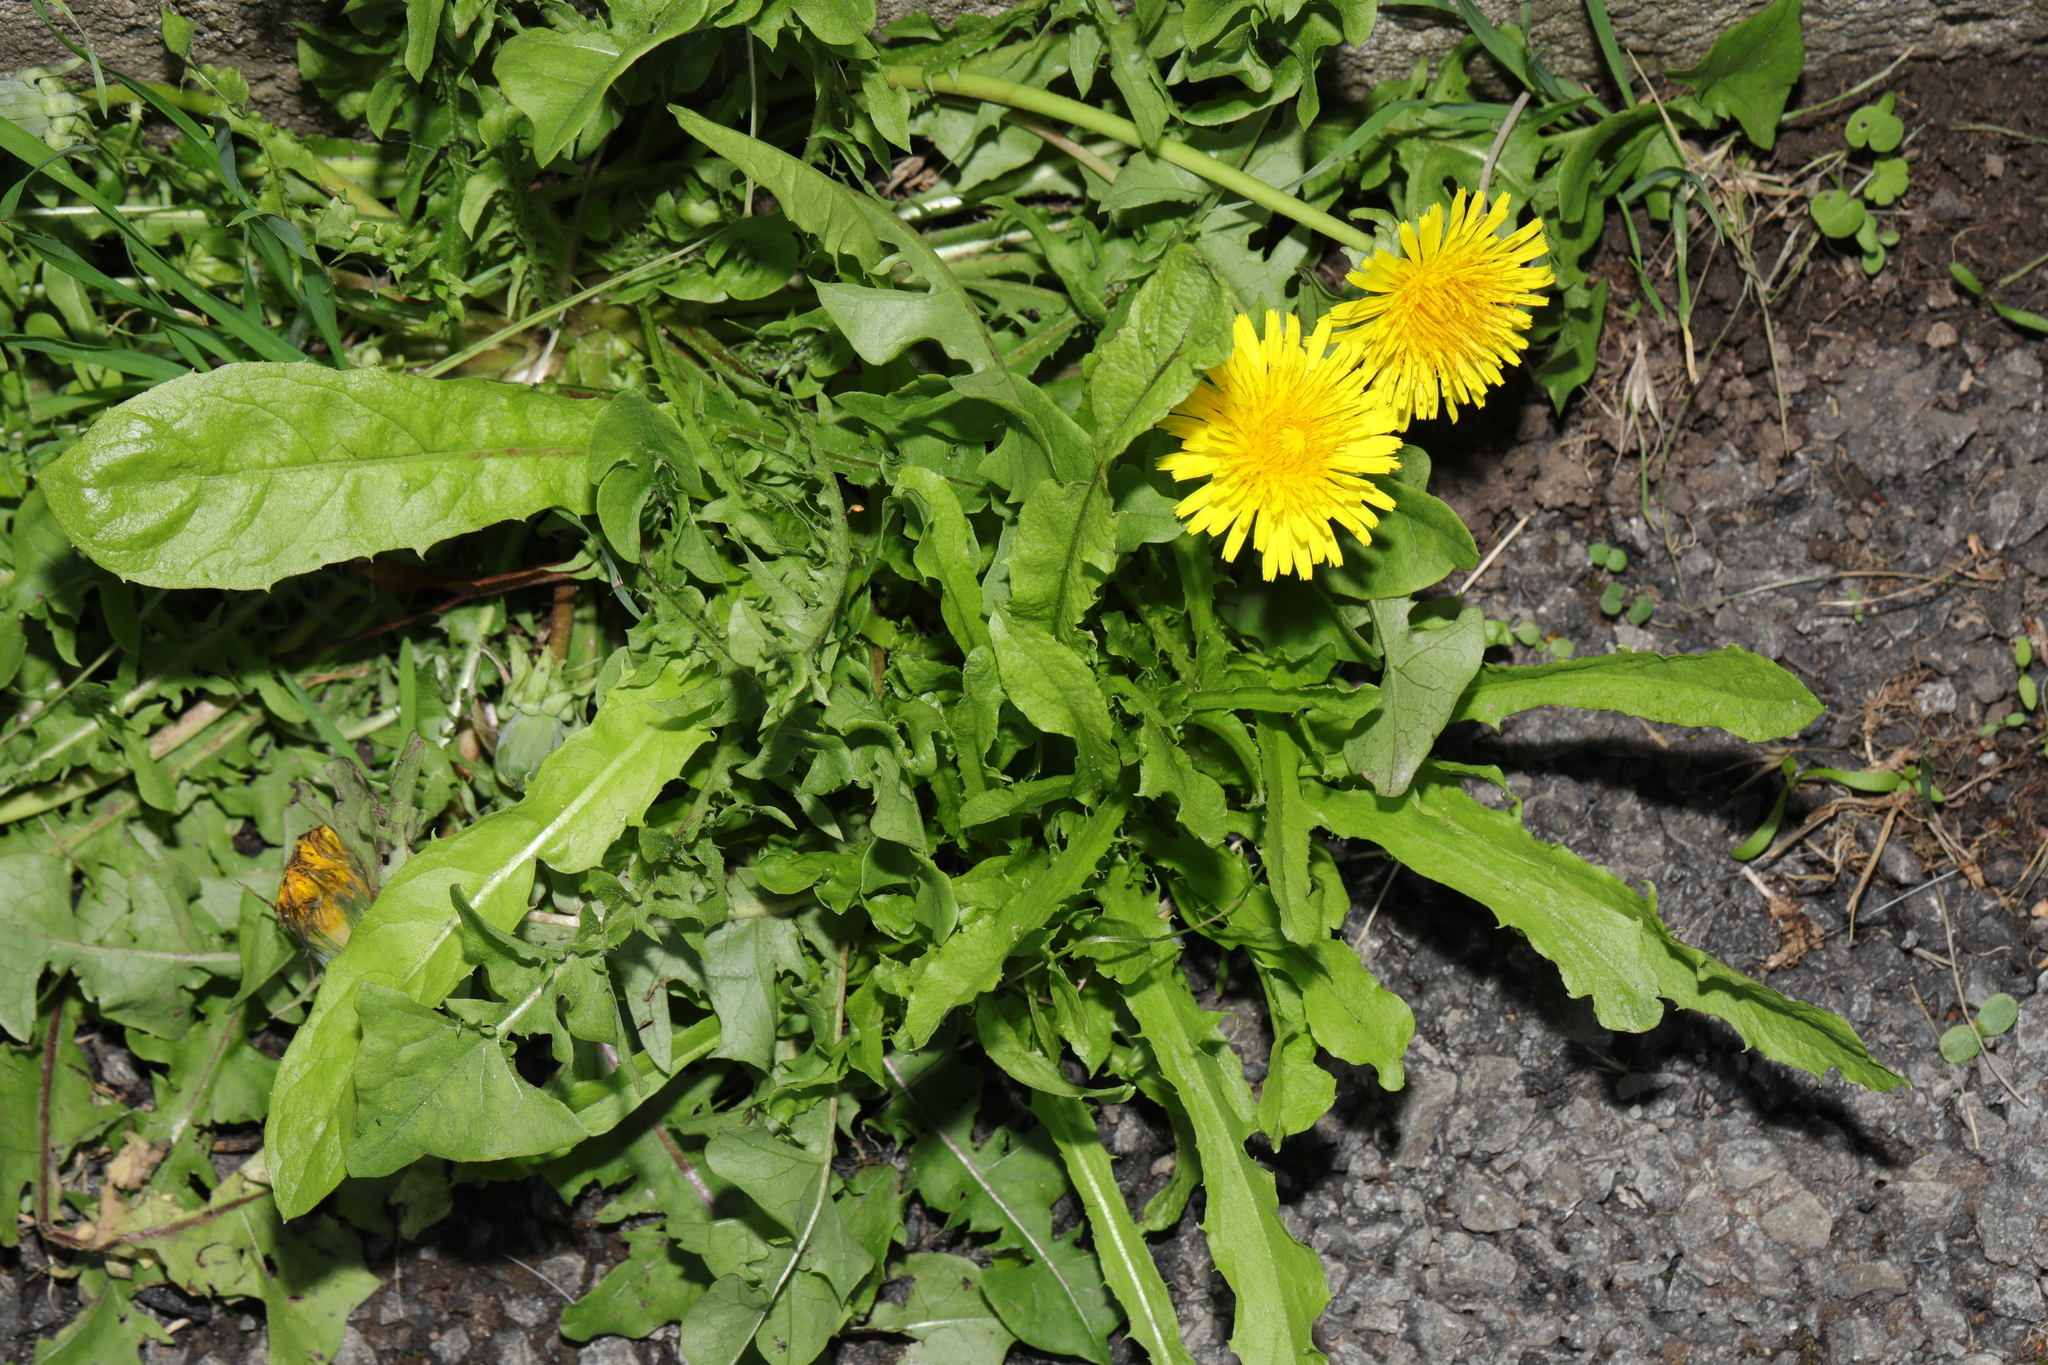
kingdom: Plantae
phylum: Tracheophyta
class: Magnoliopsida
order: Asterales
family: Asteraceae
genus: Taraxacum
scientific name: Taraxacum officinale
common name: Common dandelion
